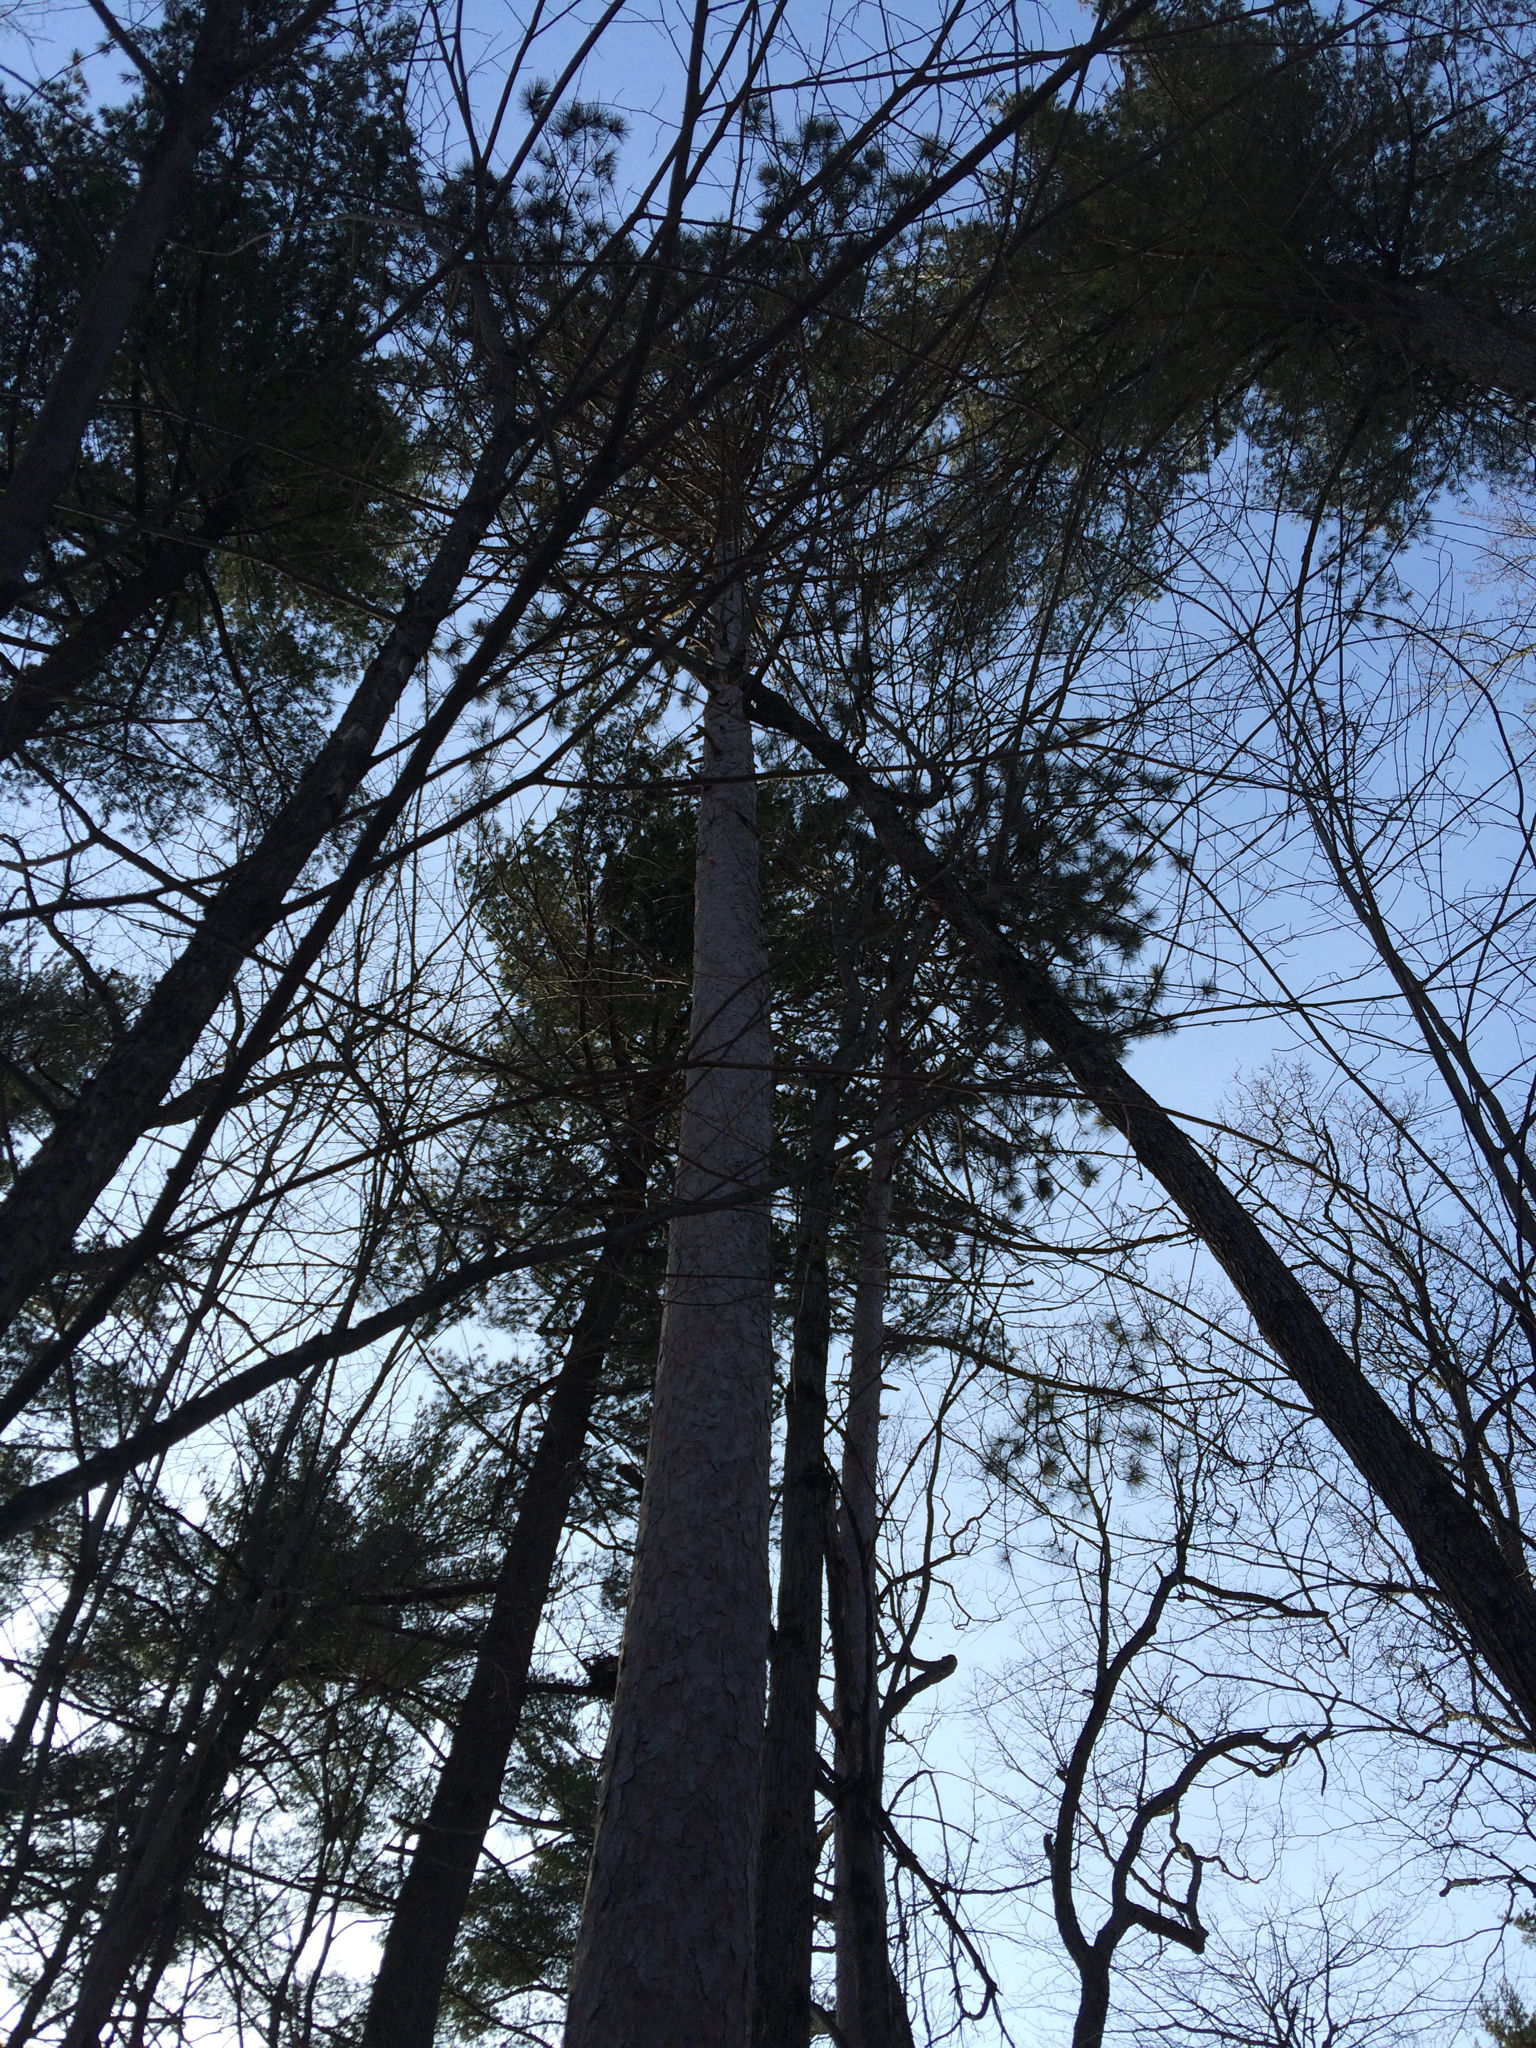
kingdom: Plantae
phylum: Tracheophyta
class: Pinopsida
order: Pinales
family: Pinaceae
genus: Pinus
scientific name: Pinus resinosa
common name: Norway pine
